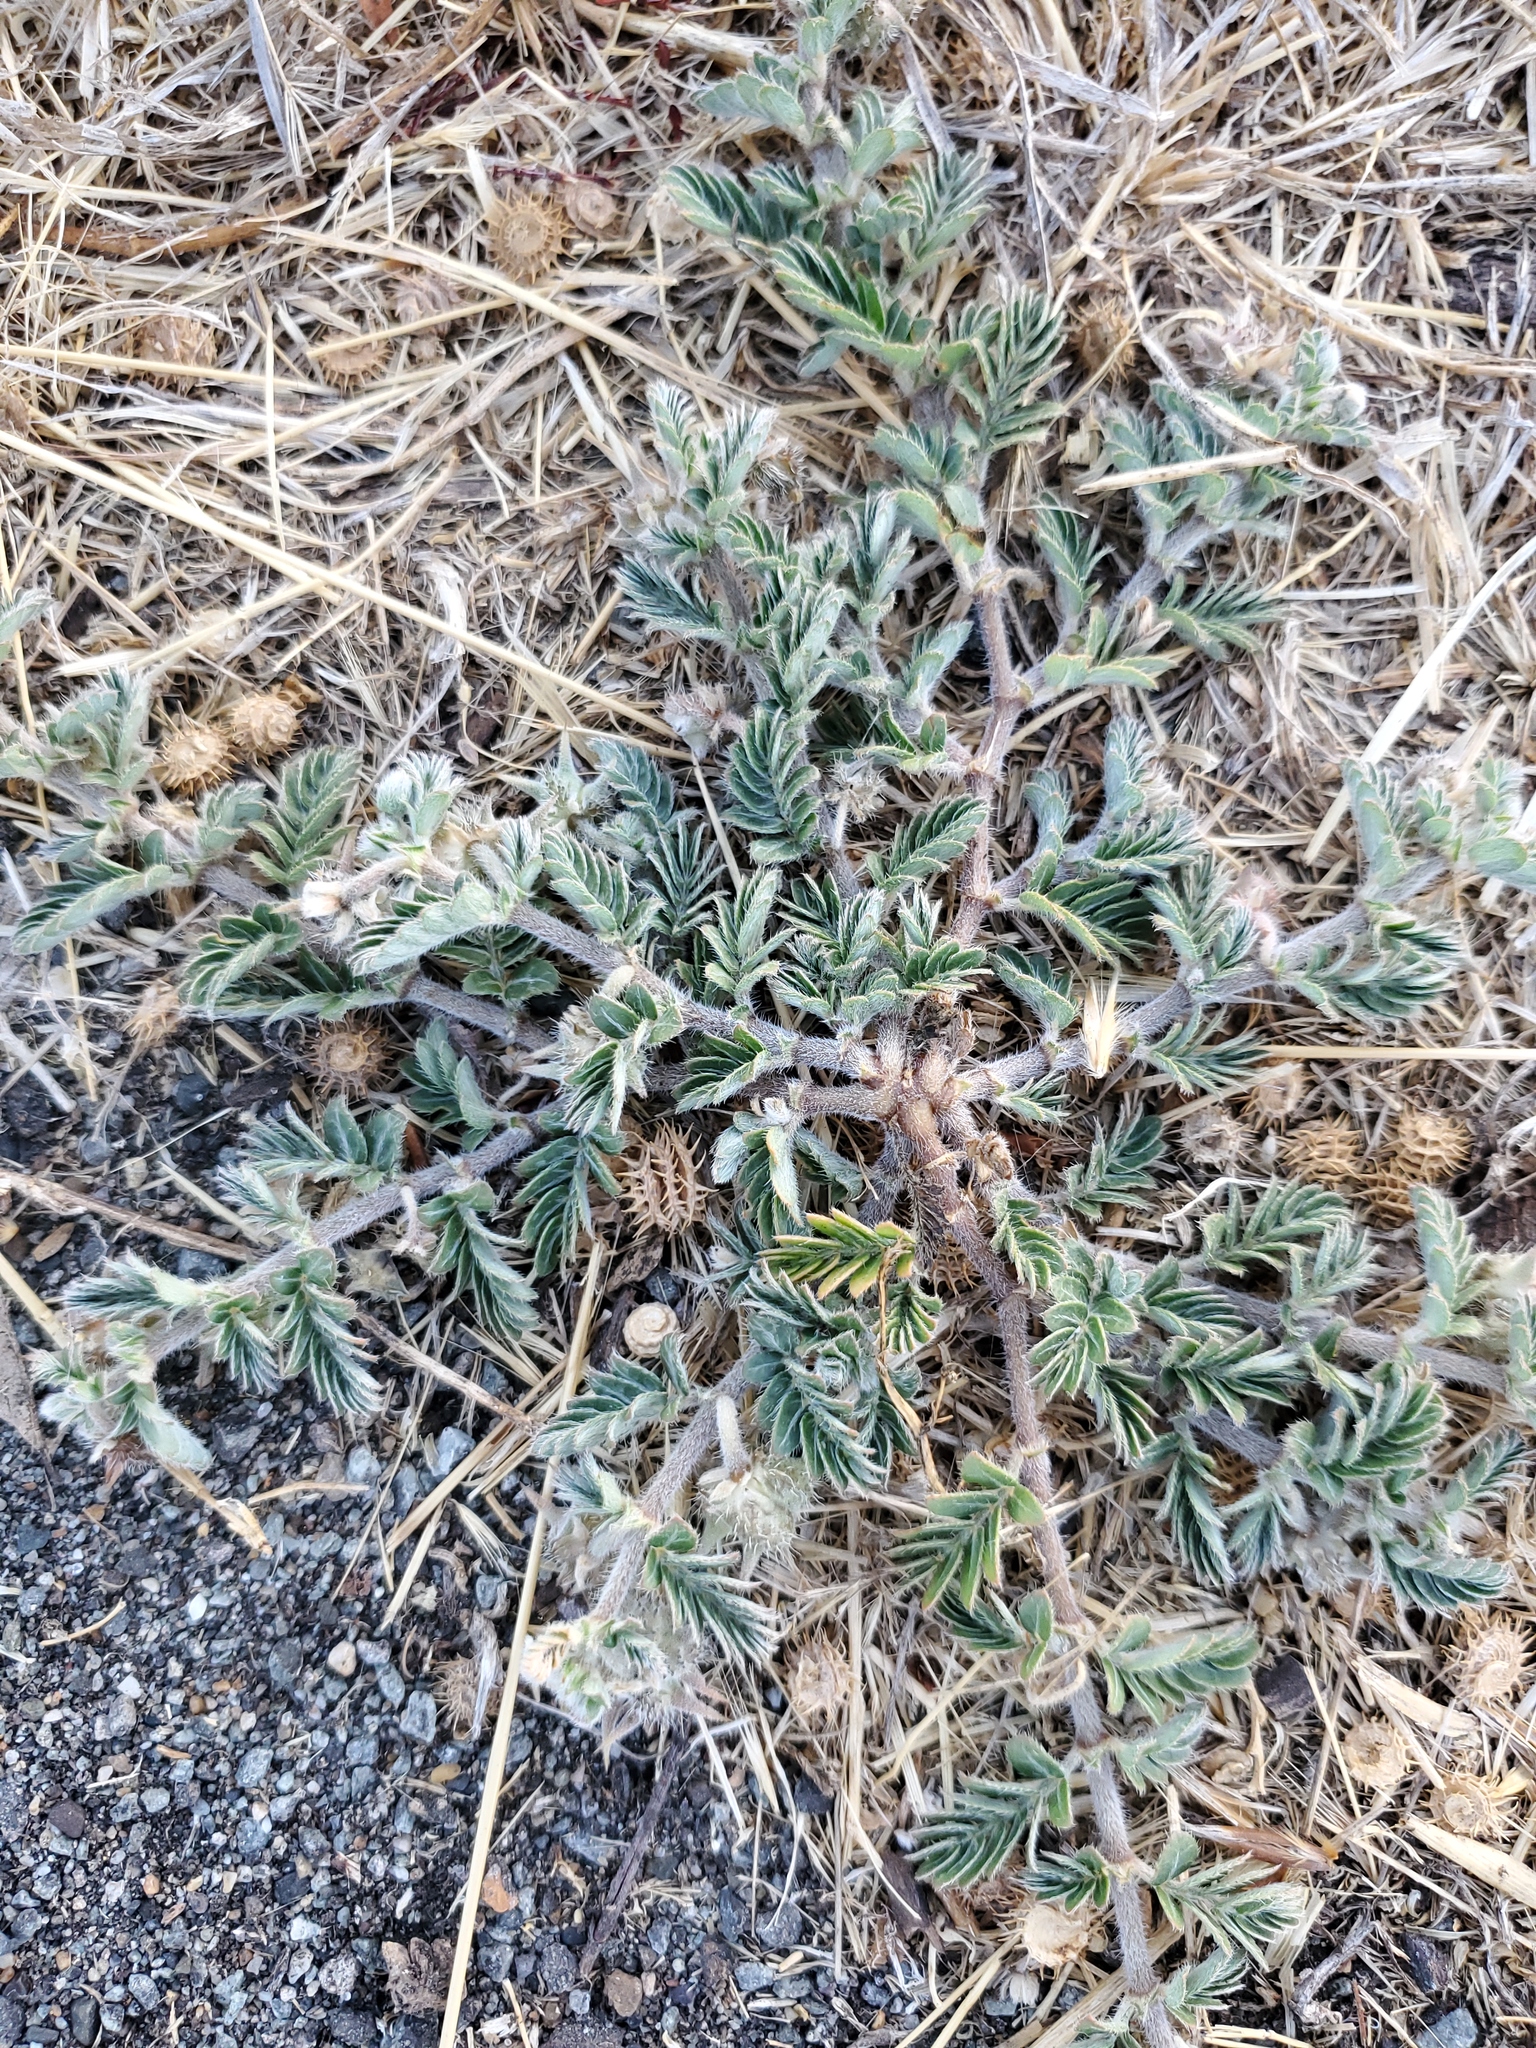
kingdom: Plantae
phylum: Tracheophyta
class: Magnoliopsida
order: Zygophyllales
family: Zygophyllaceae
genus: Tribulus
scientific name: Tribulus terrestris
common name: Puncturevine
